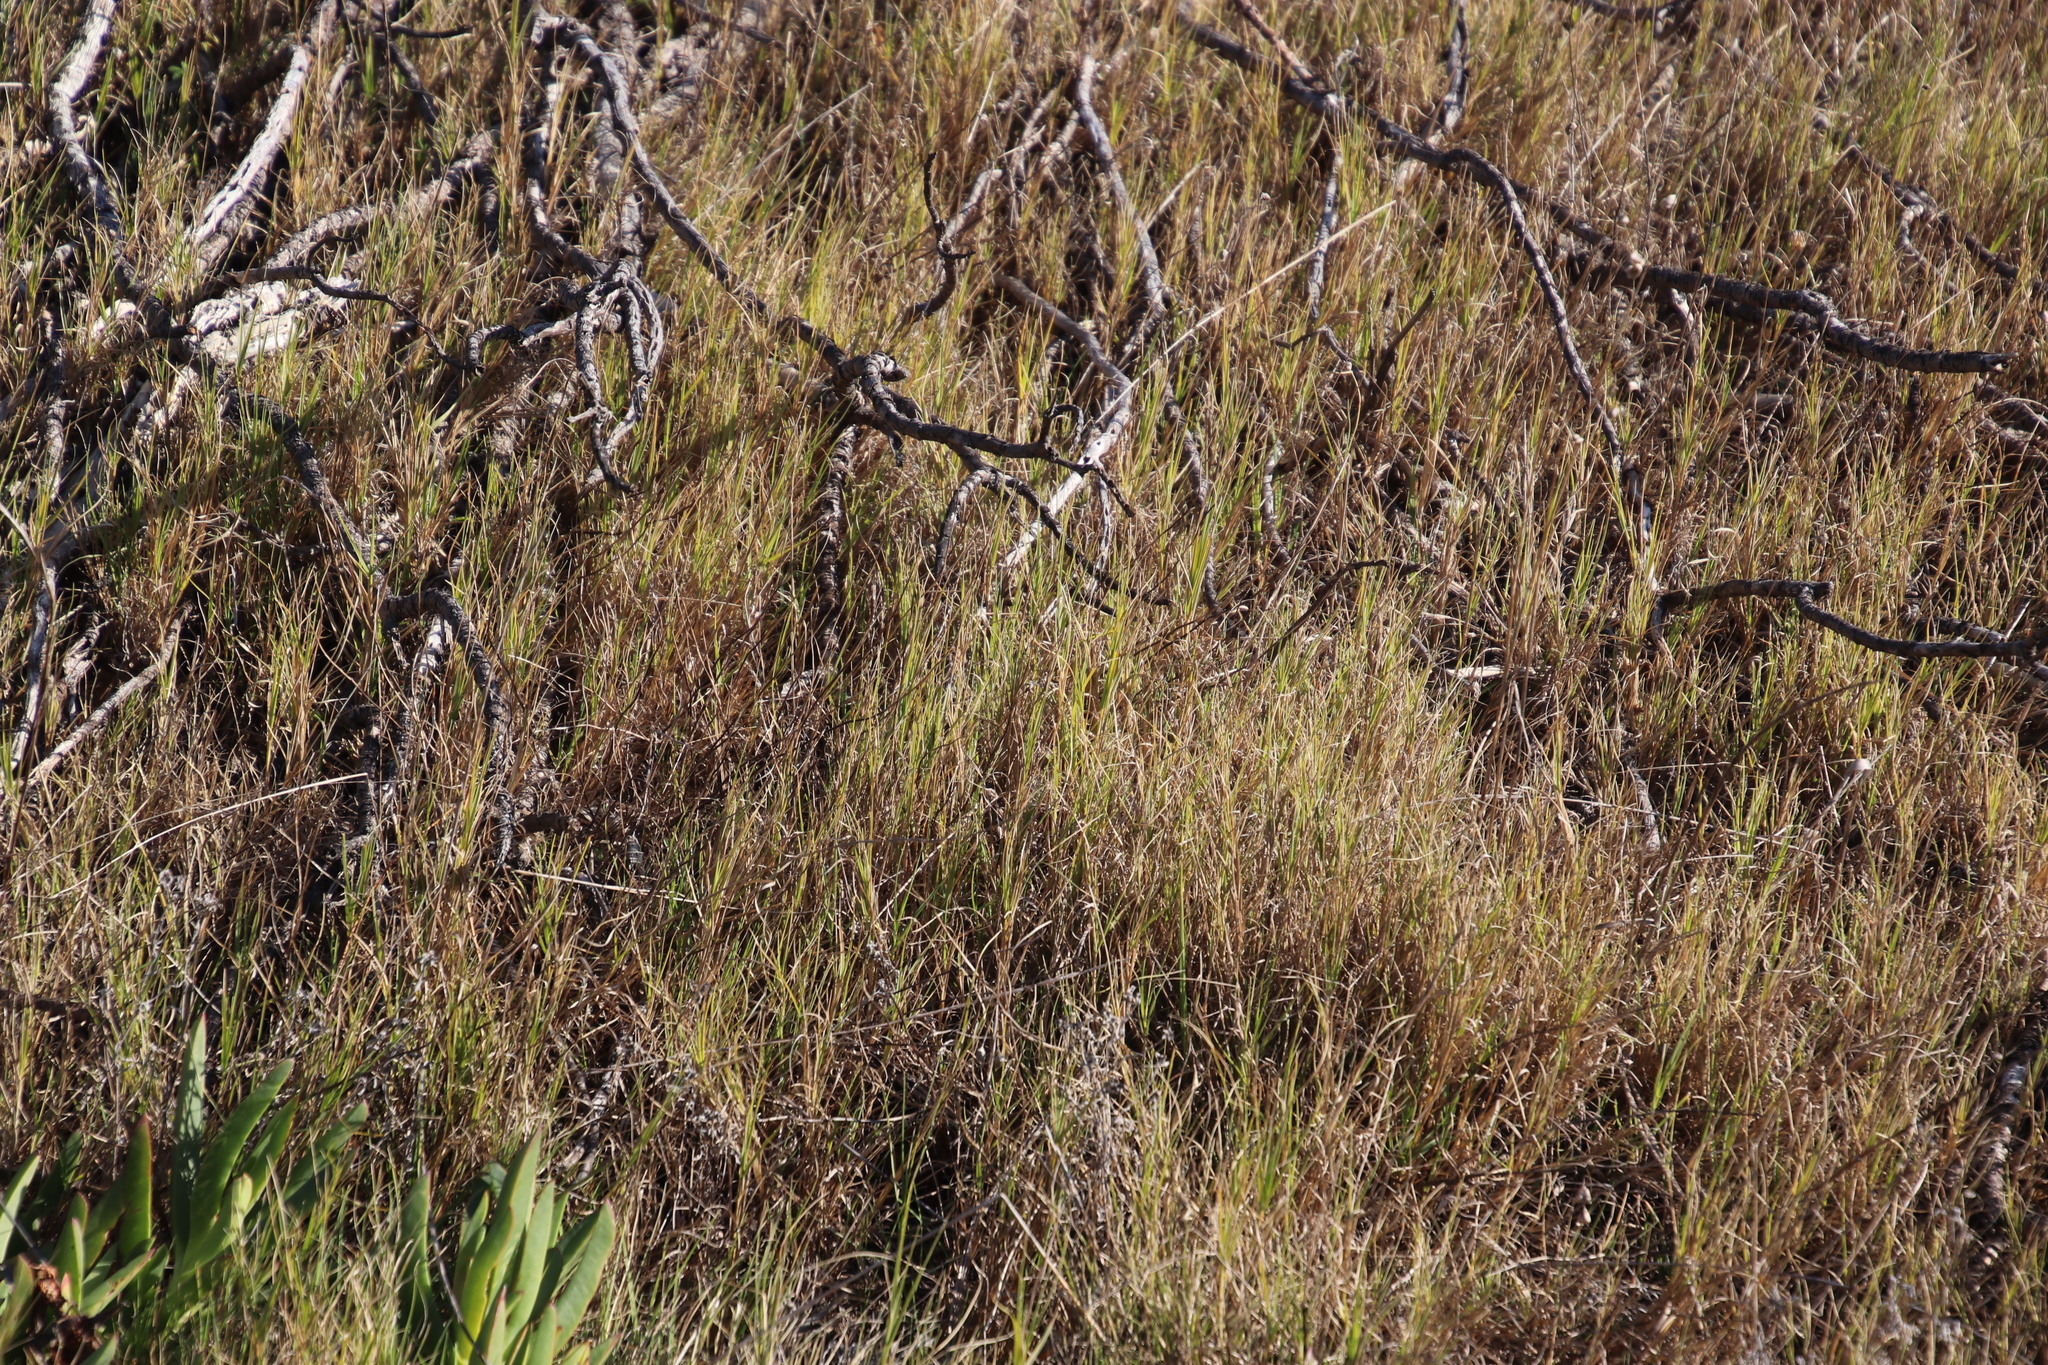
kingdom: Plantae
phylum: Tracheophyta
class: Liliopsida
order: Poales
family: Poaceae
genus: Cynodon
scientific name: Cynodon dactylon
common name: Bermuda grass
